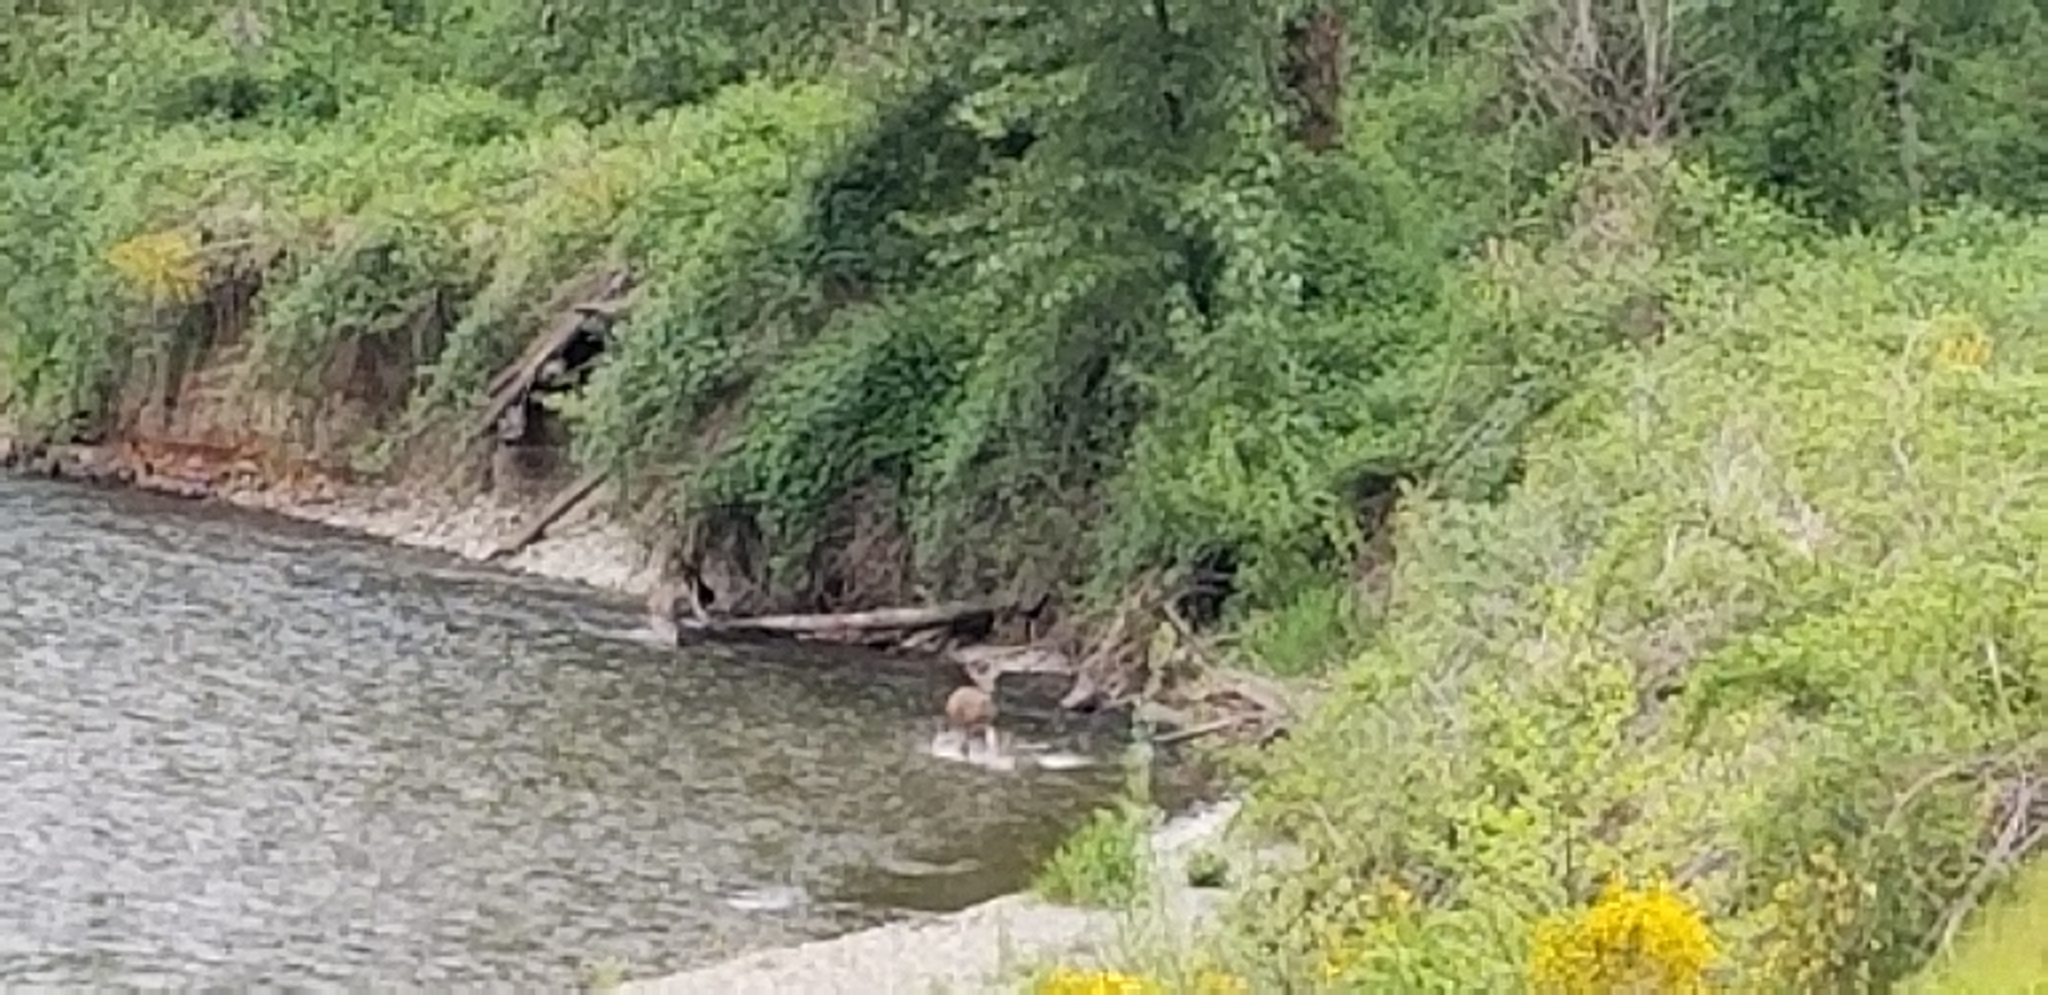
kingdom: Animalia
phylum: Chordata
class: Mammalia
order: Artiodactyla
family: Cervidae
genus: Odocoileus
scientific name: Odocoileus hemionus
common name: Mule deer
